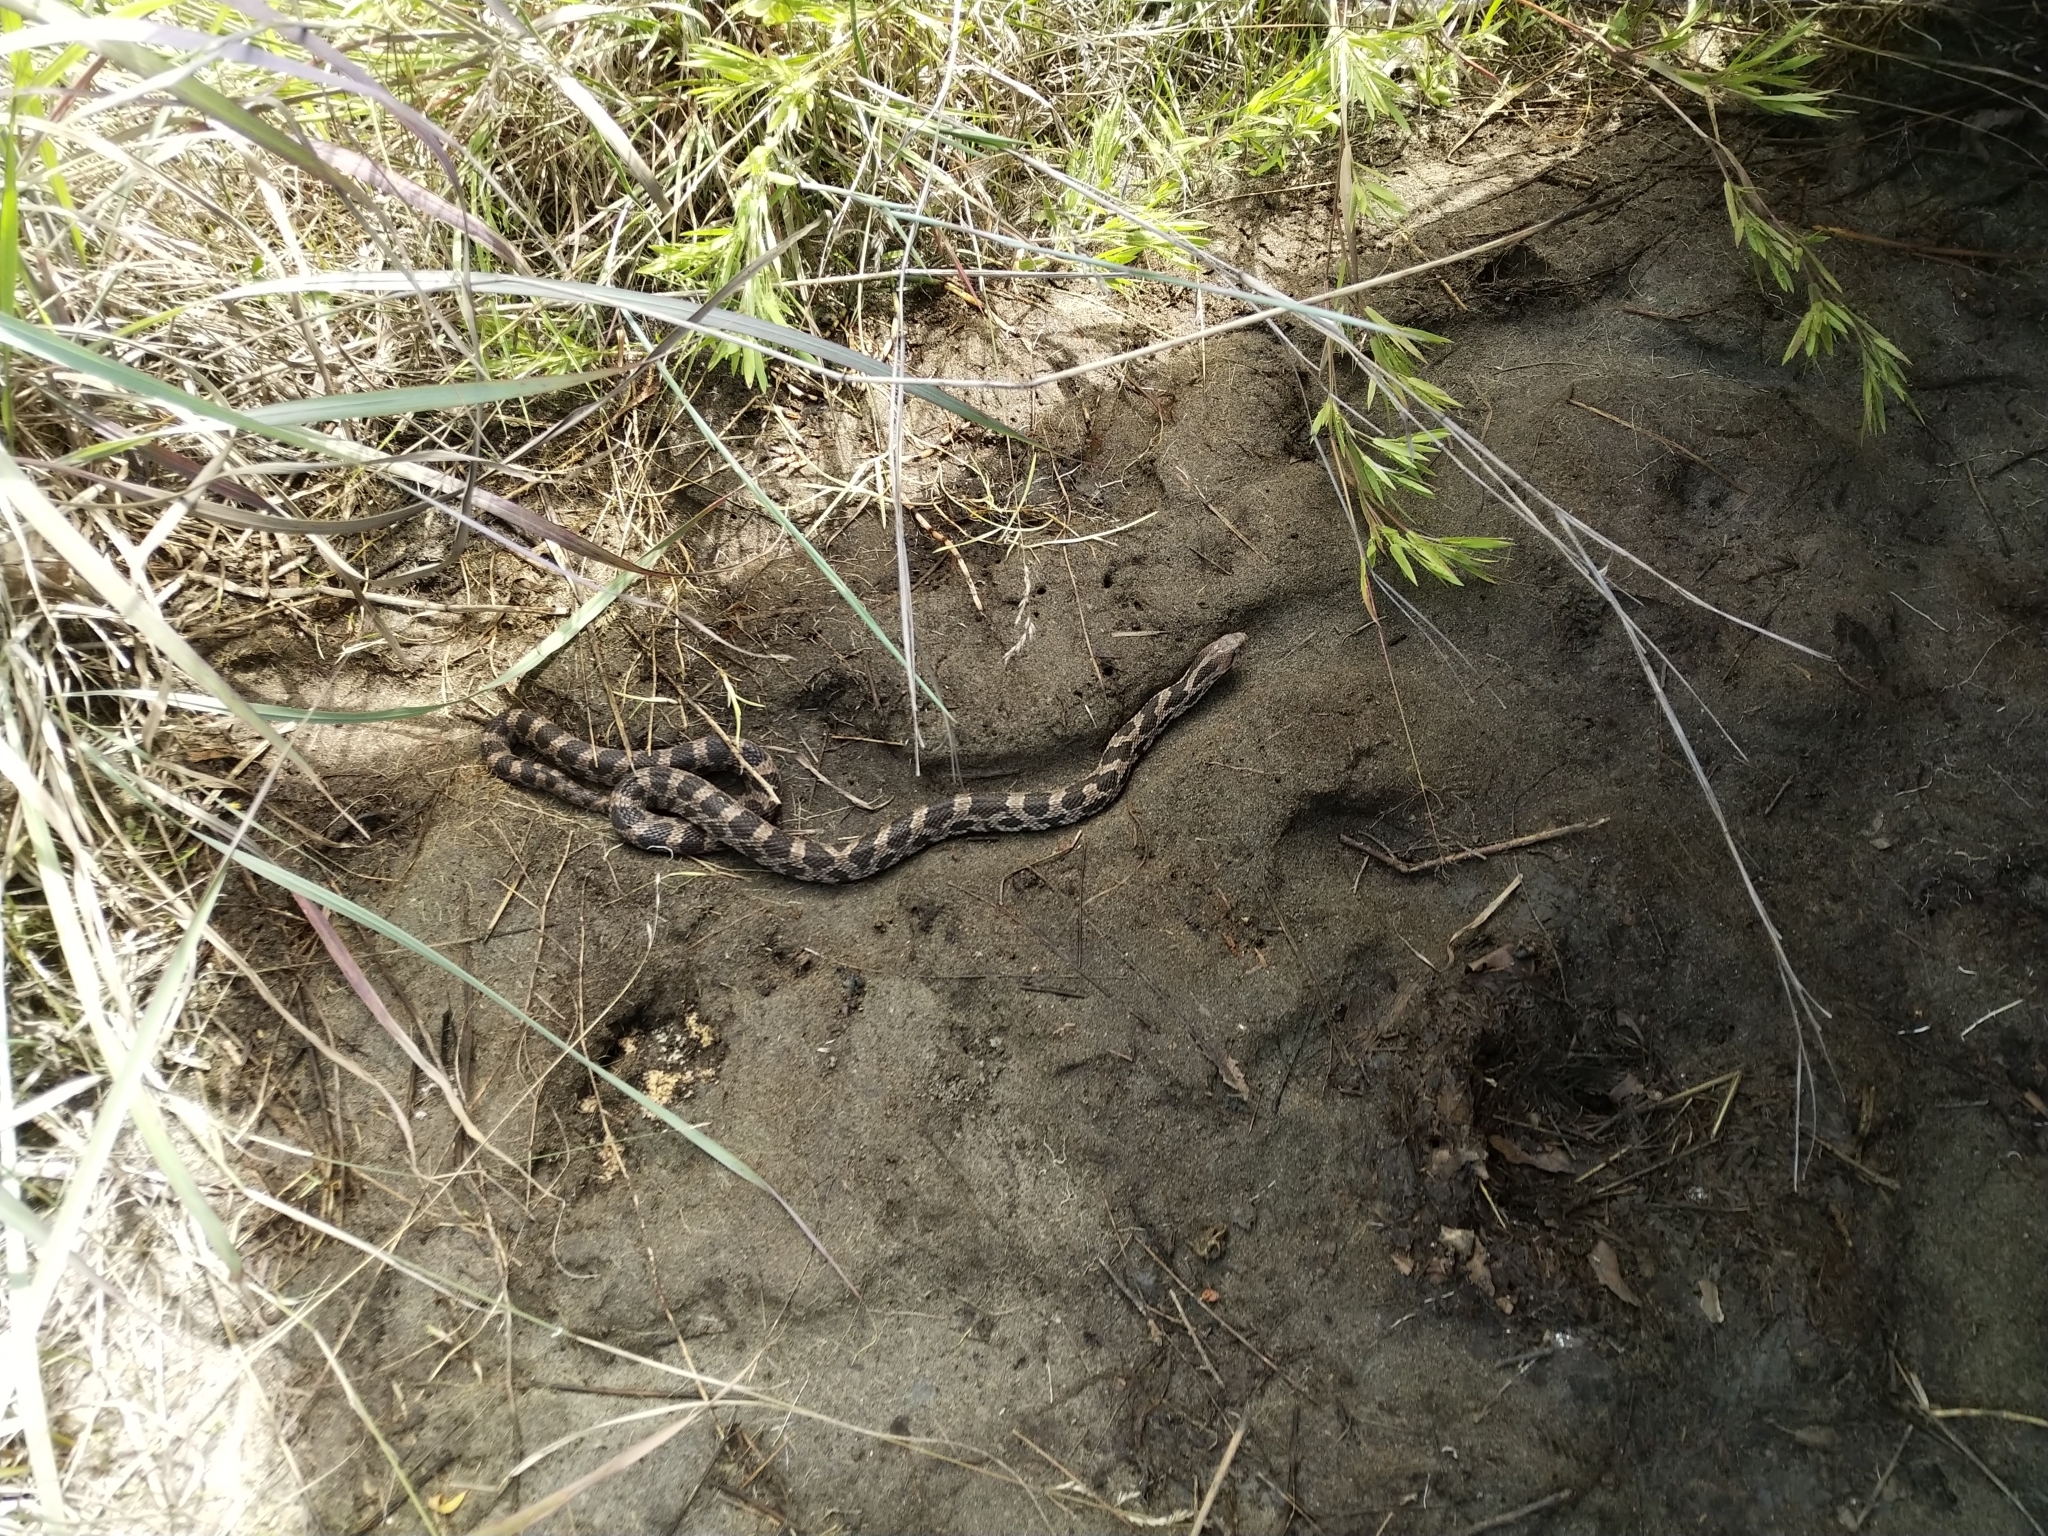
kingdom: Animalia
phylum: Chordata
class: Squamata
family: Colubridae
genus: Pantherophis
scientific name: Pantherophis vulpinus
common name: Eastern fox snake
